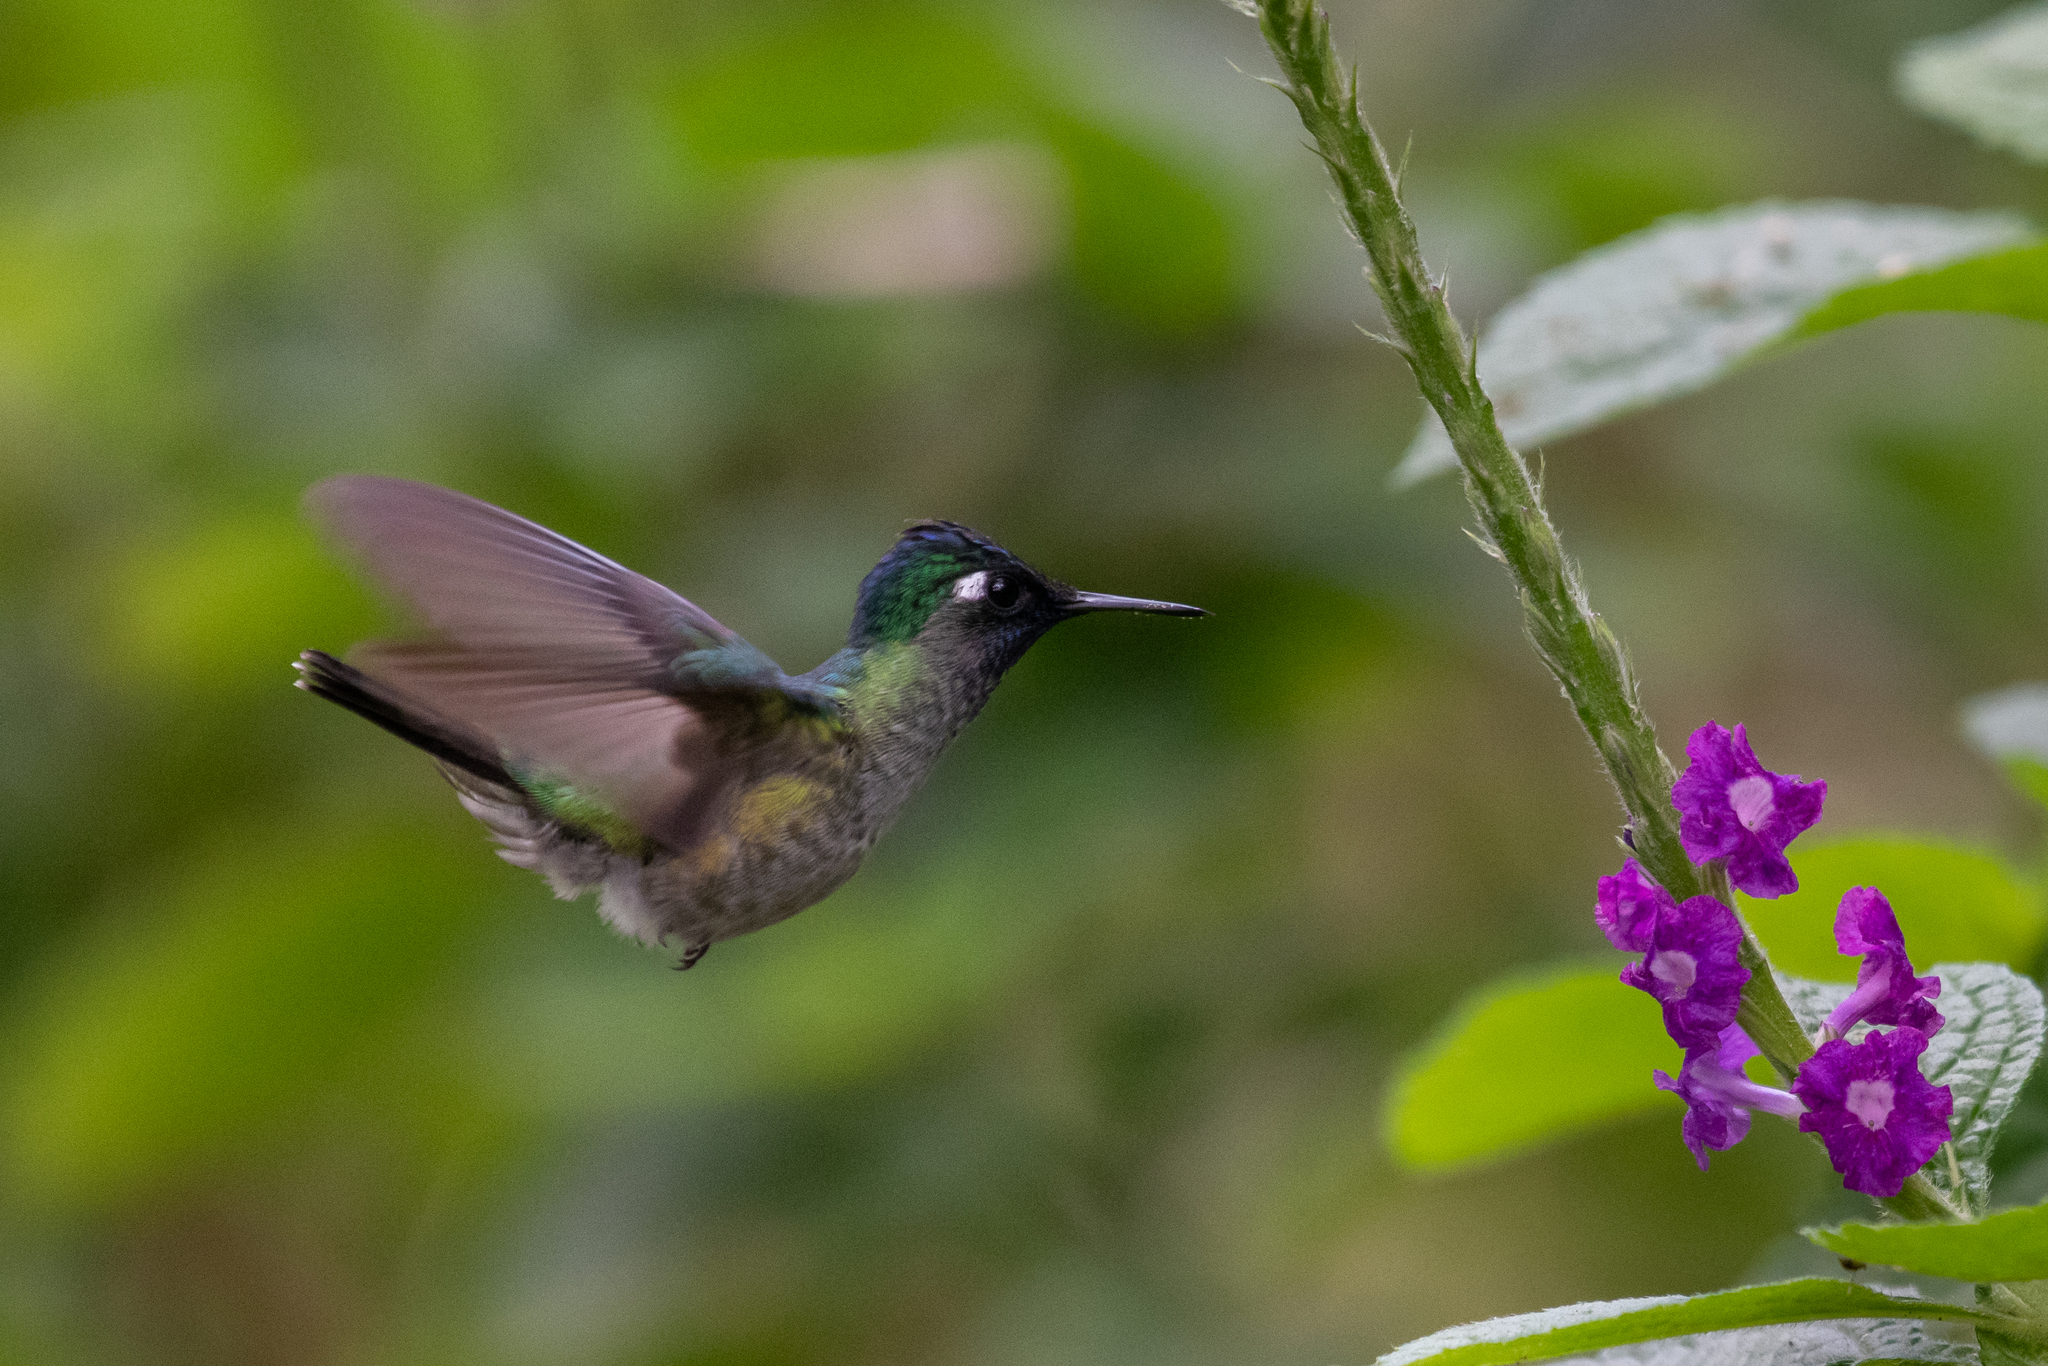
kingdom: Animalia
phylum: Chordata
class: Aves
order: Apodiformes
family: Trochilidae
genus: Klais
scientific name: Klais guimeti
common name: Violet-headed hummingbird
